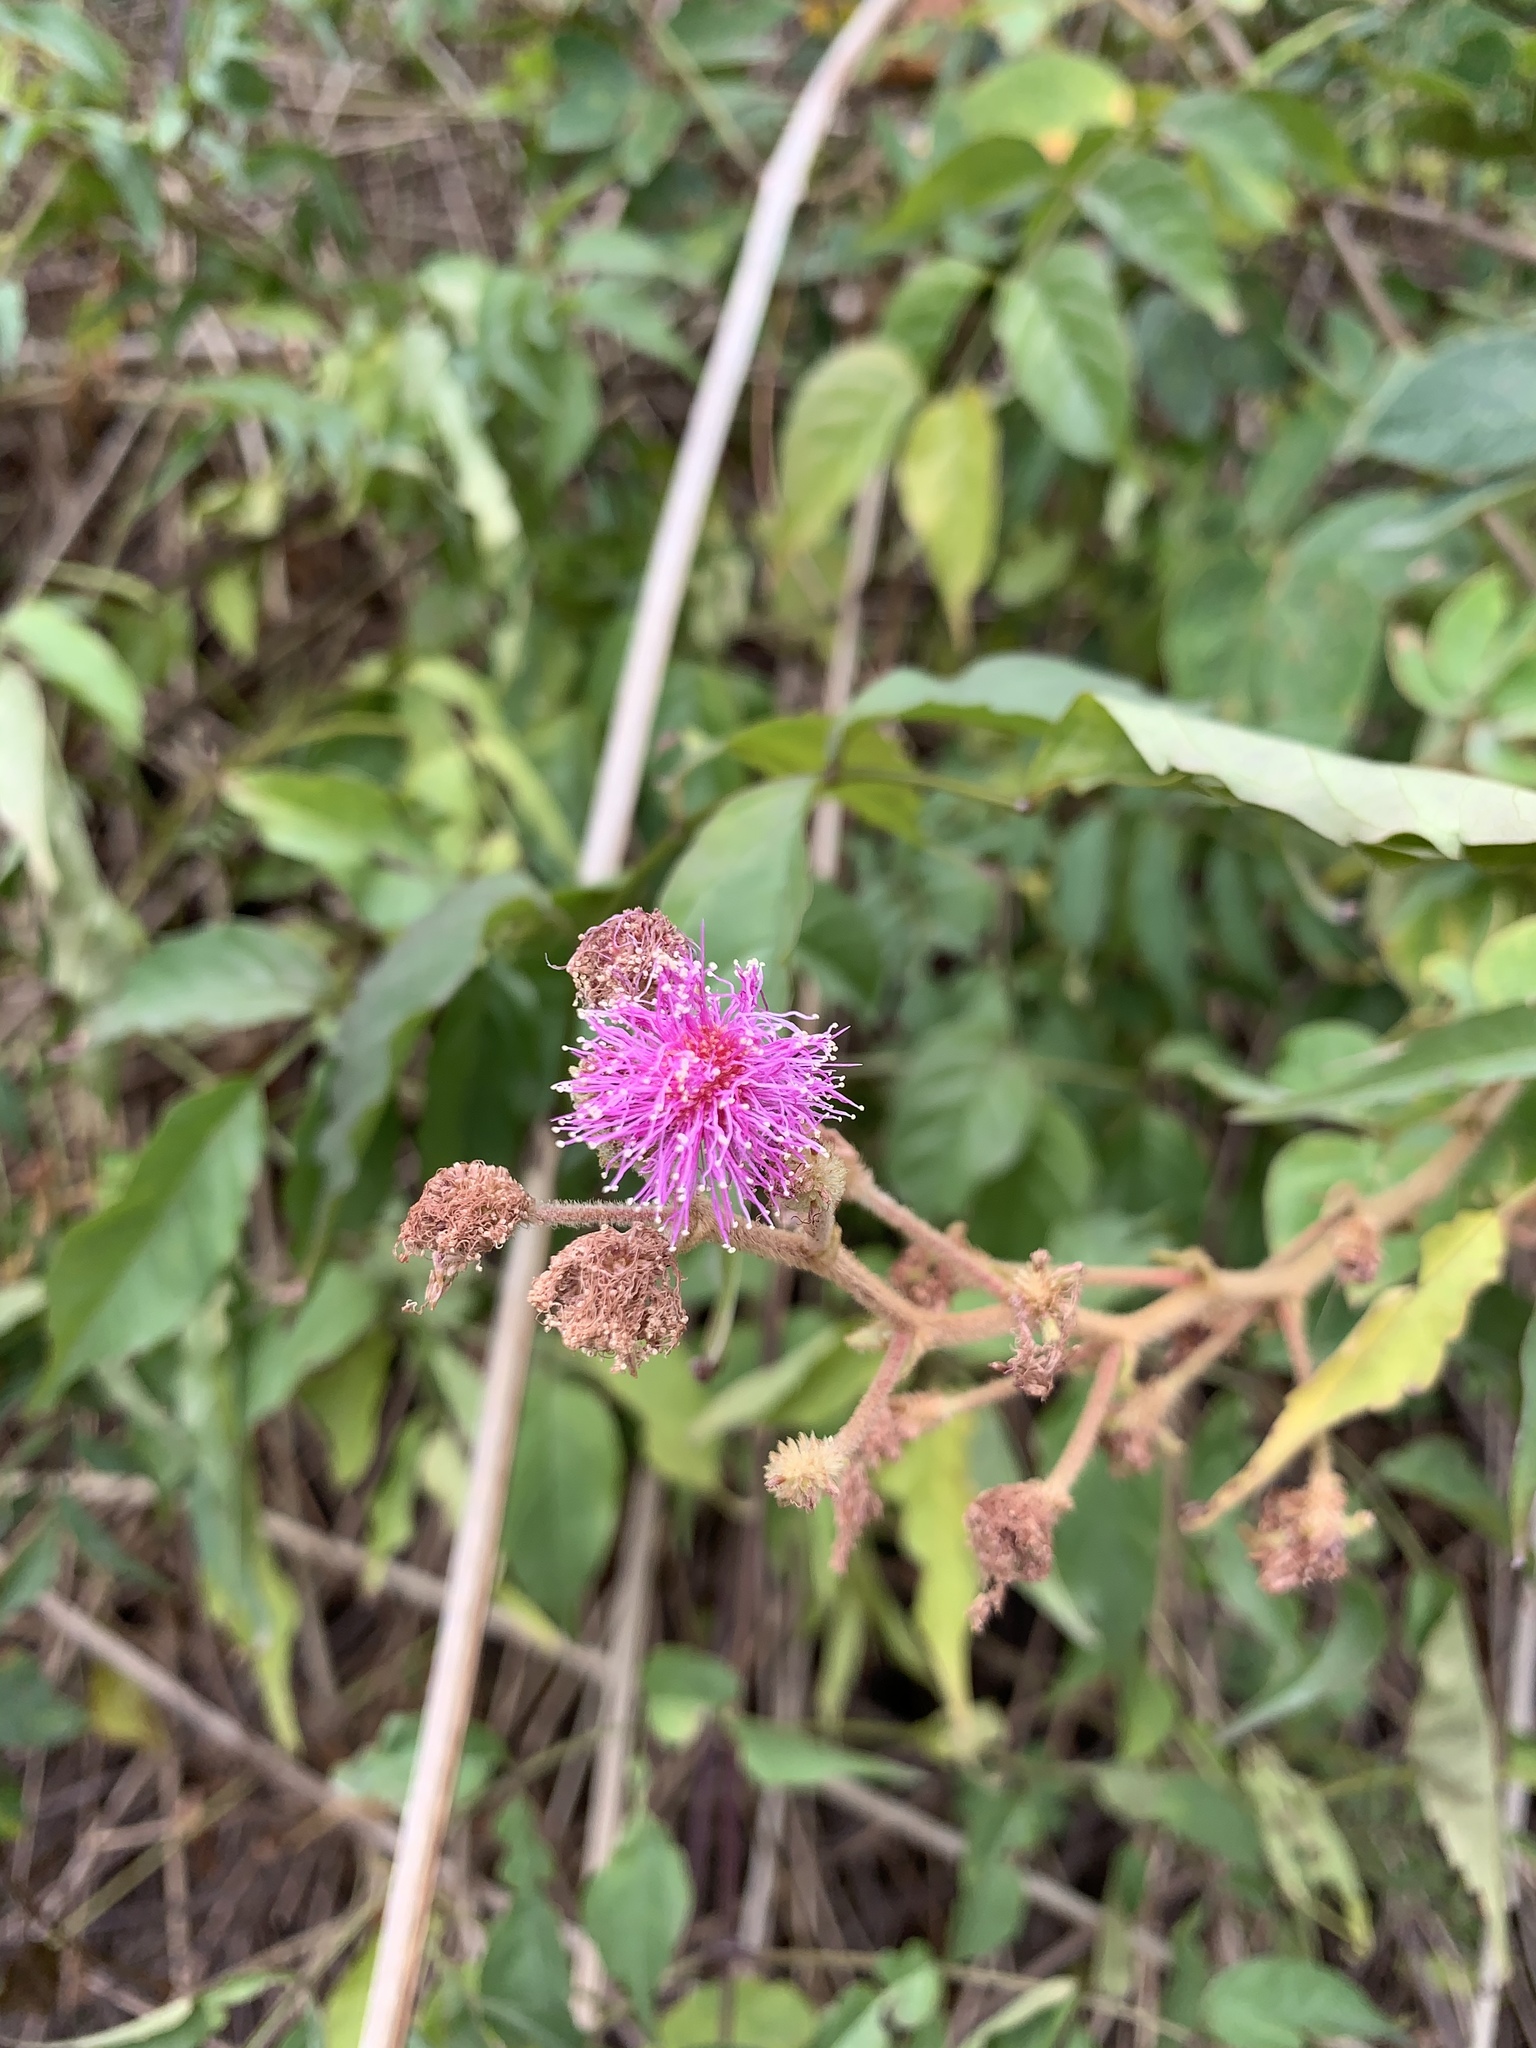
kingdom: Plantae
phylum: Tracheophyta
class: Magnoliopsida
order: Fabales
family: Fabaceae
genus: Mimosa
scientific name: Mimosa albida
